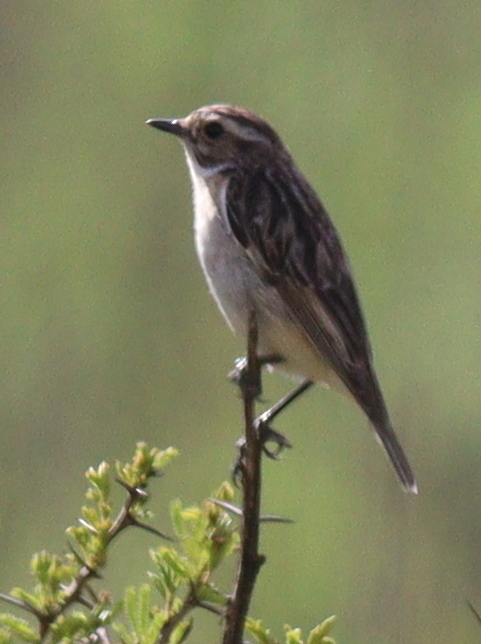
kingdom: Animalia
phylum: Chordata
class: Aves
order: Passeriformes
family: Muscicapidae
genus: Saxicola
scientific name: Saxicola rubetra
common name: Whinchat
